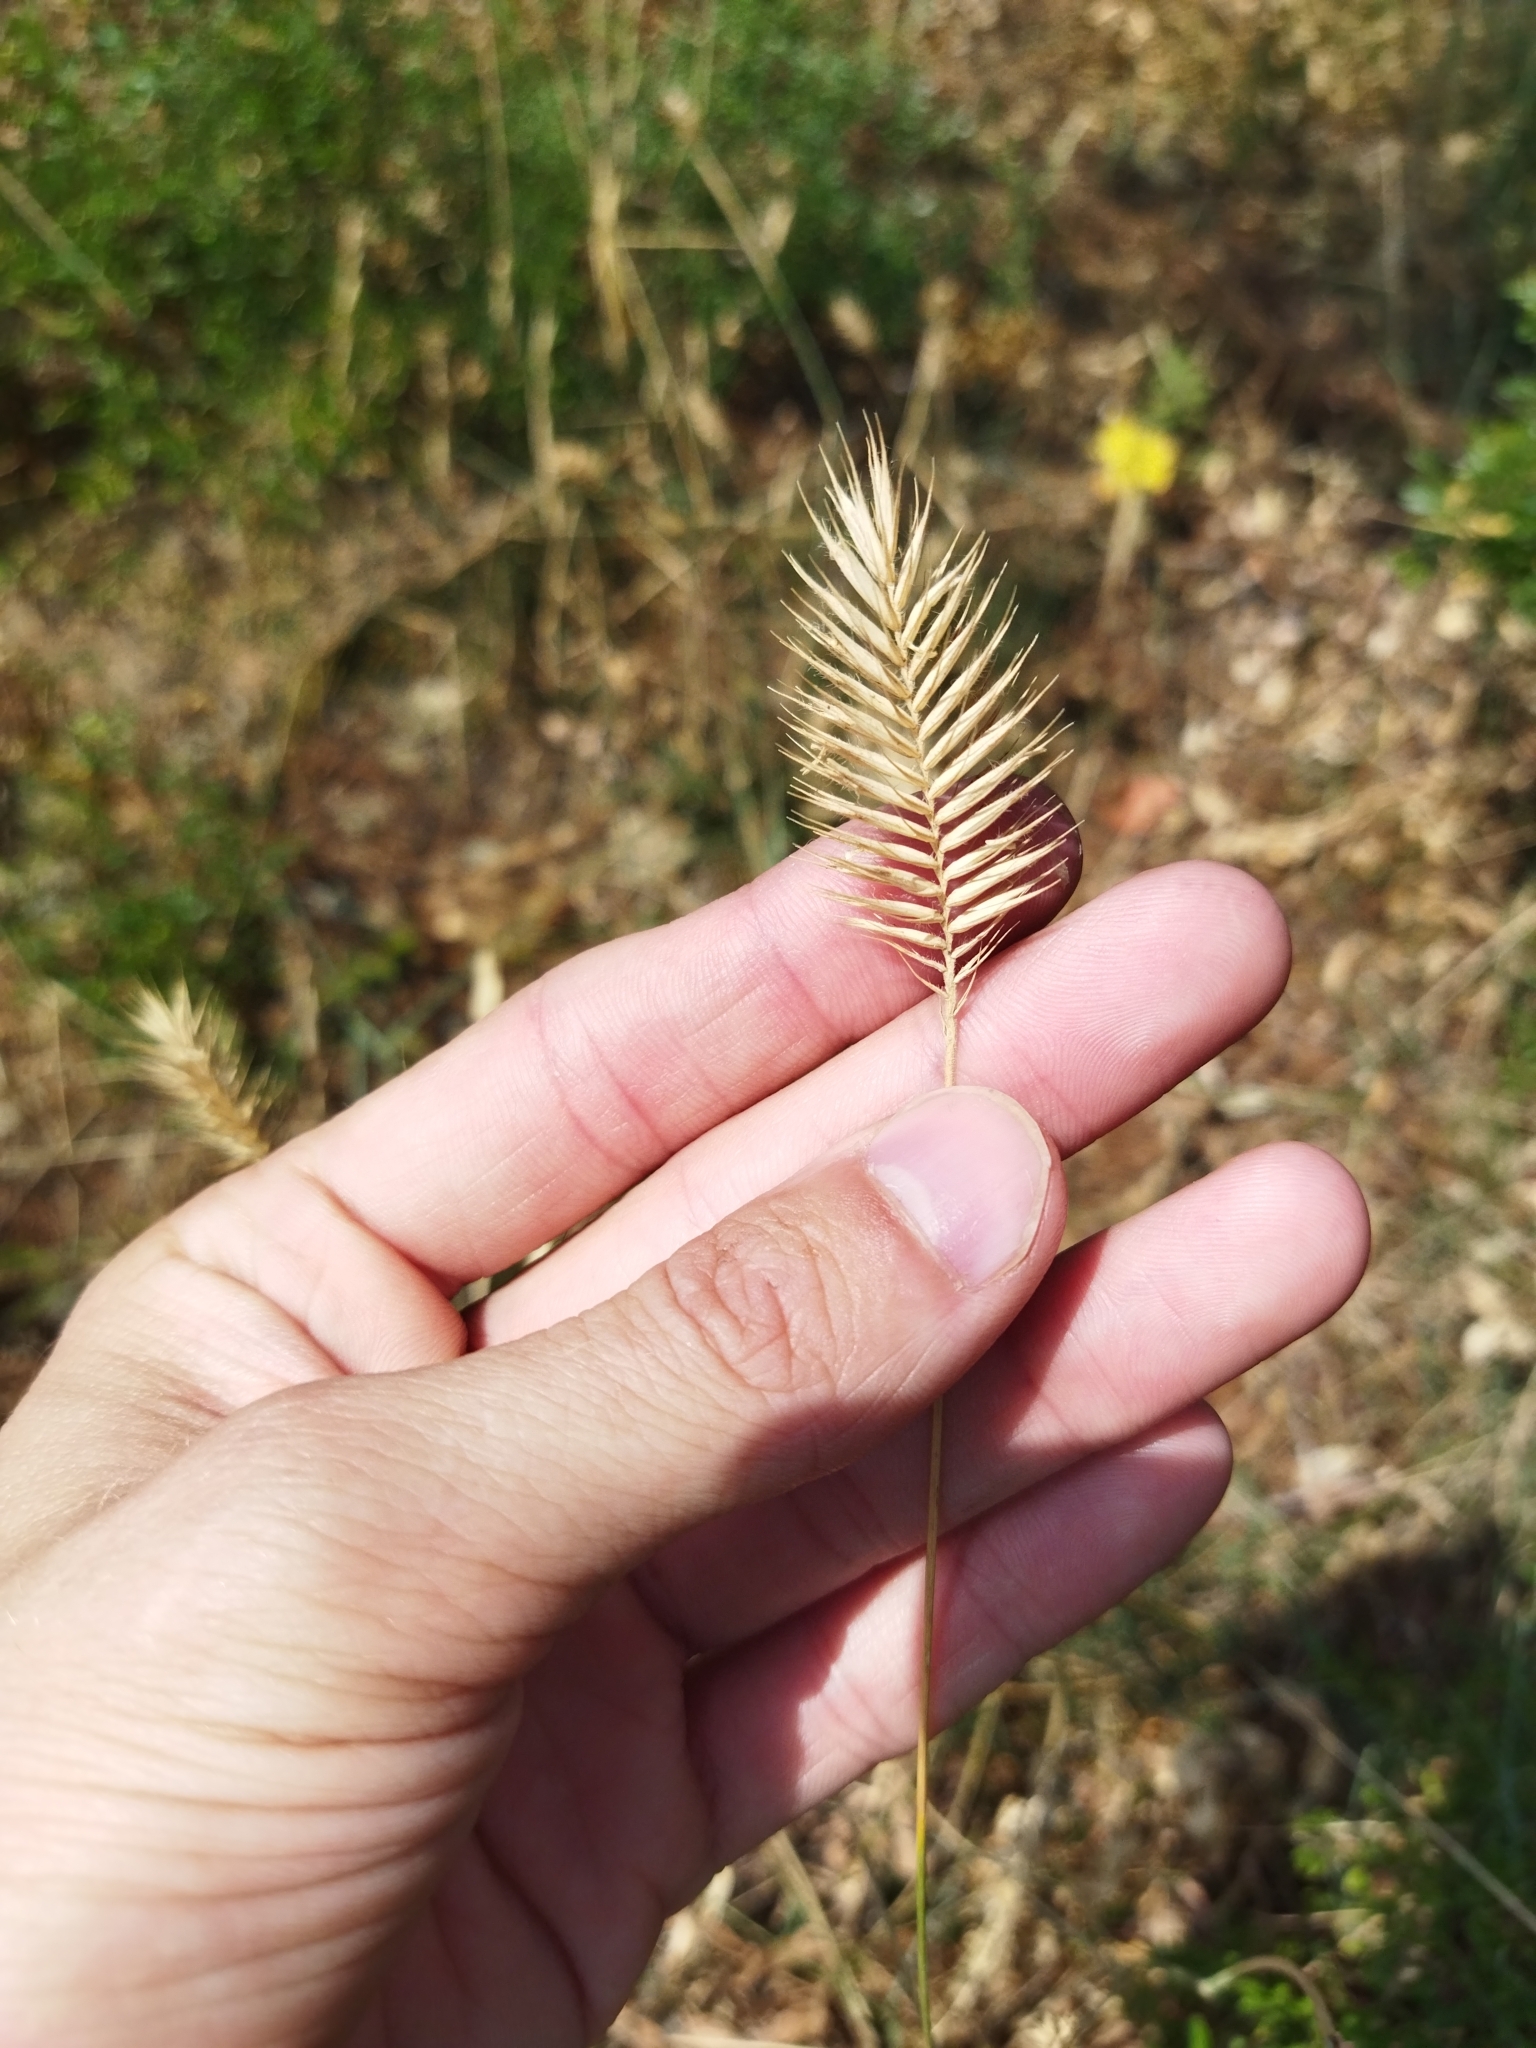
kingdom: Plantae
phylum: Tracheophyta
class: Liliopsida
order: Poales
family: Poaceae
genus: Agropyron
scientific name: Agropyron cristatum
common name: Crested wheatgrass
